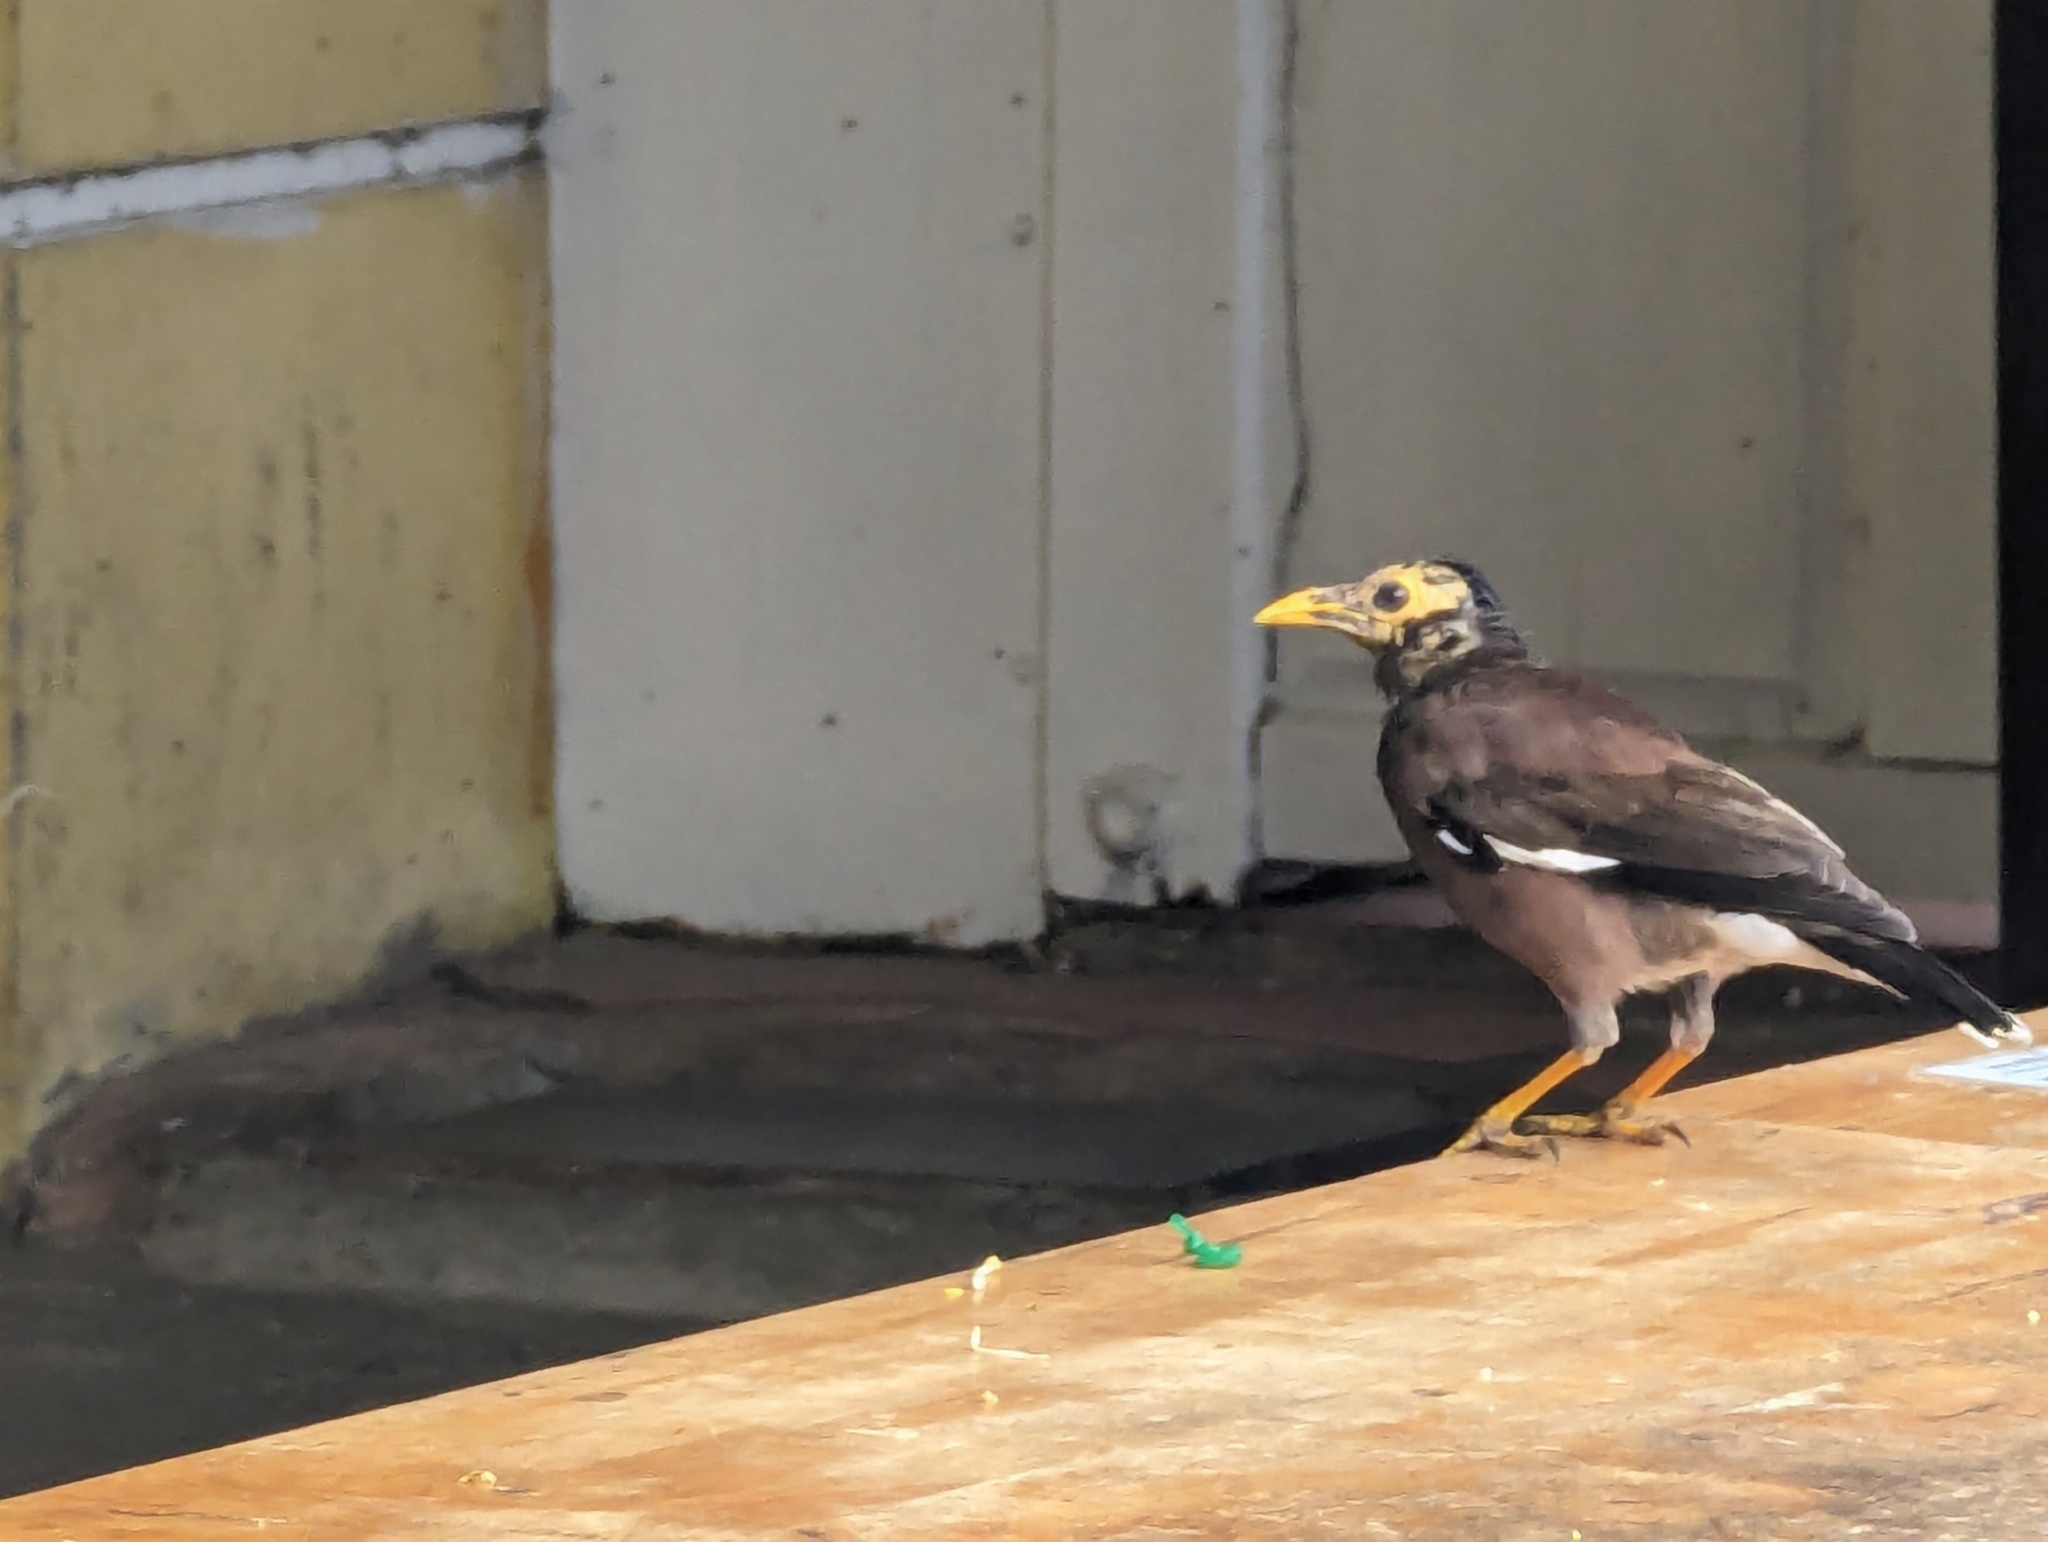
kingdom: Animalia
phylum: Chordata
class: Aves
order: Passeriformes
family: Sturnidae
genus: Acridotheres
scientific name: Acridotheres tristis
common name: Common myna
